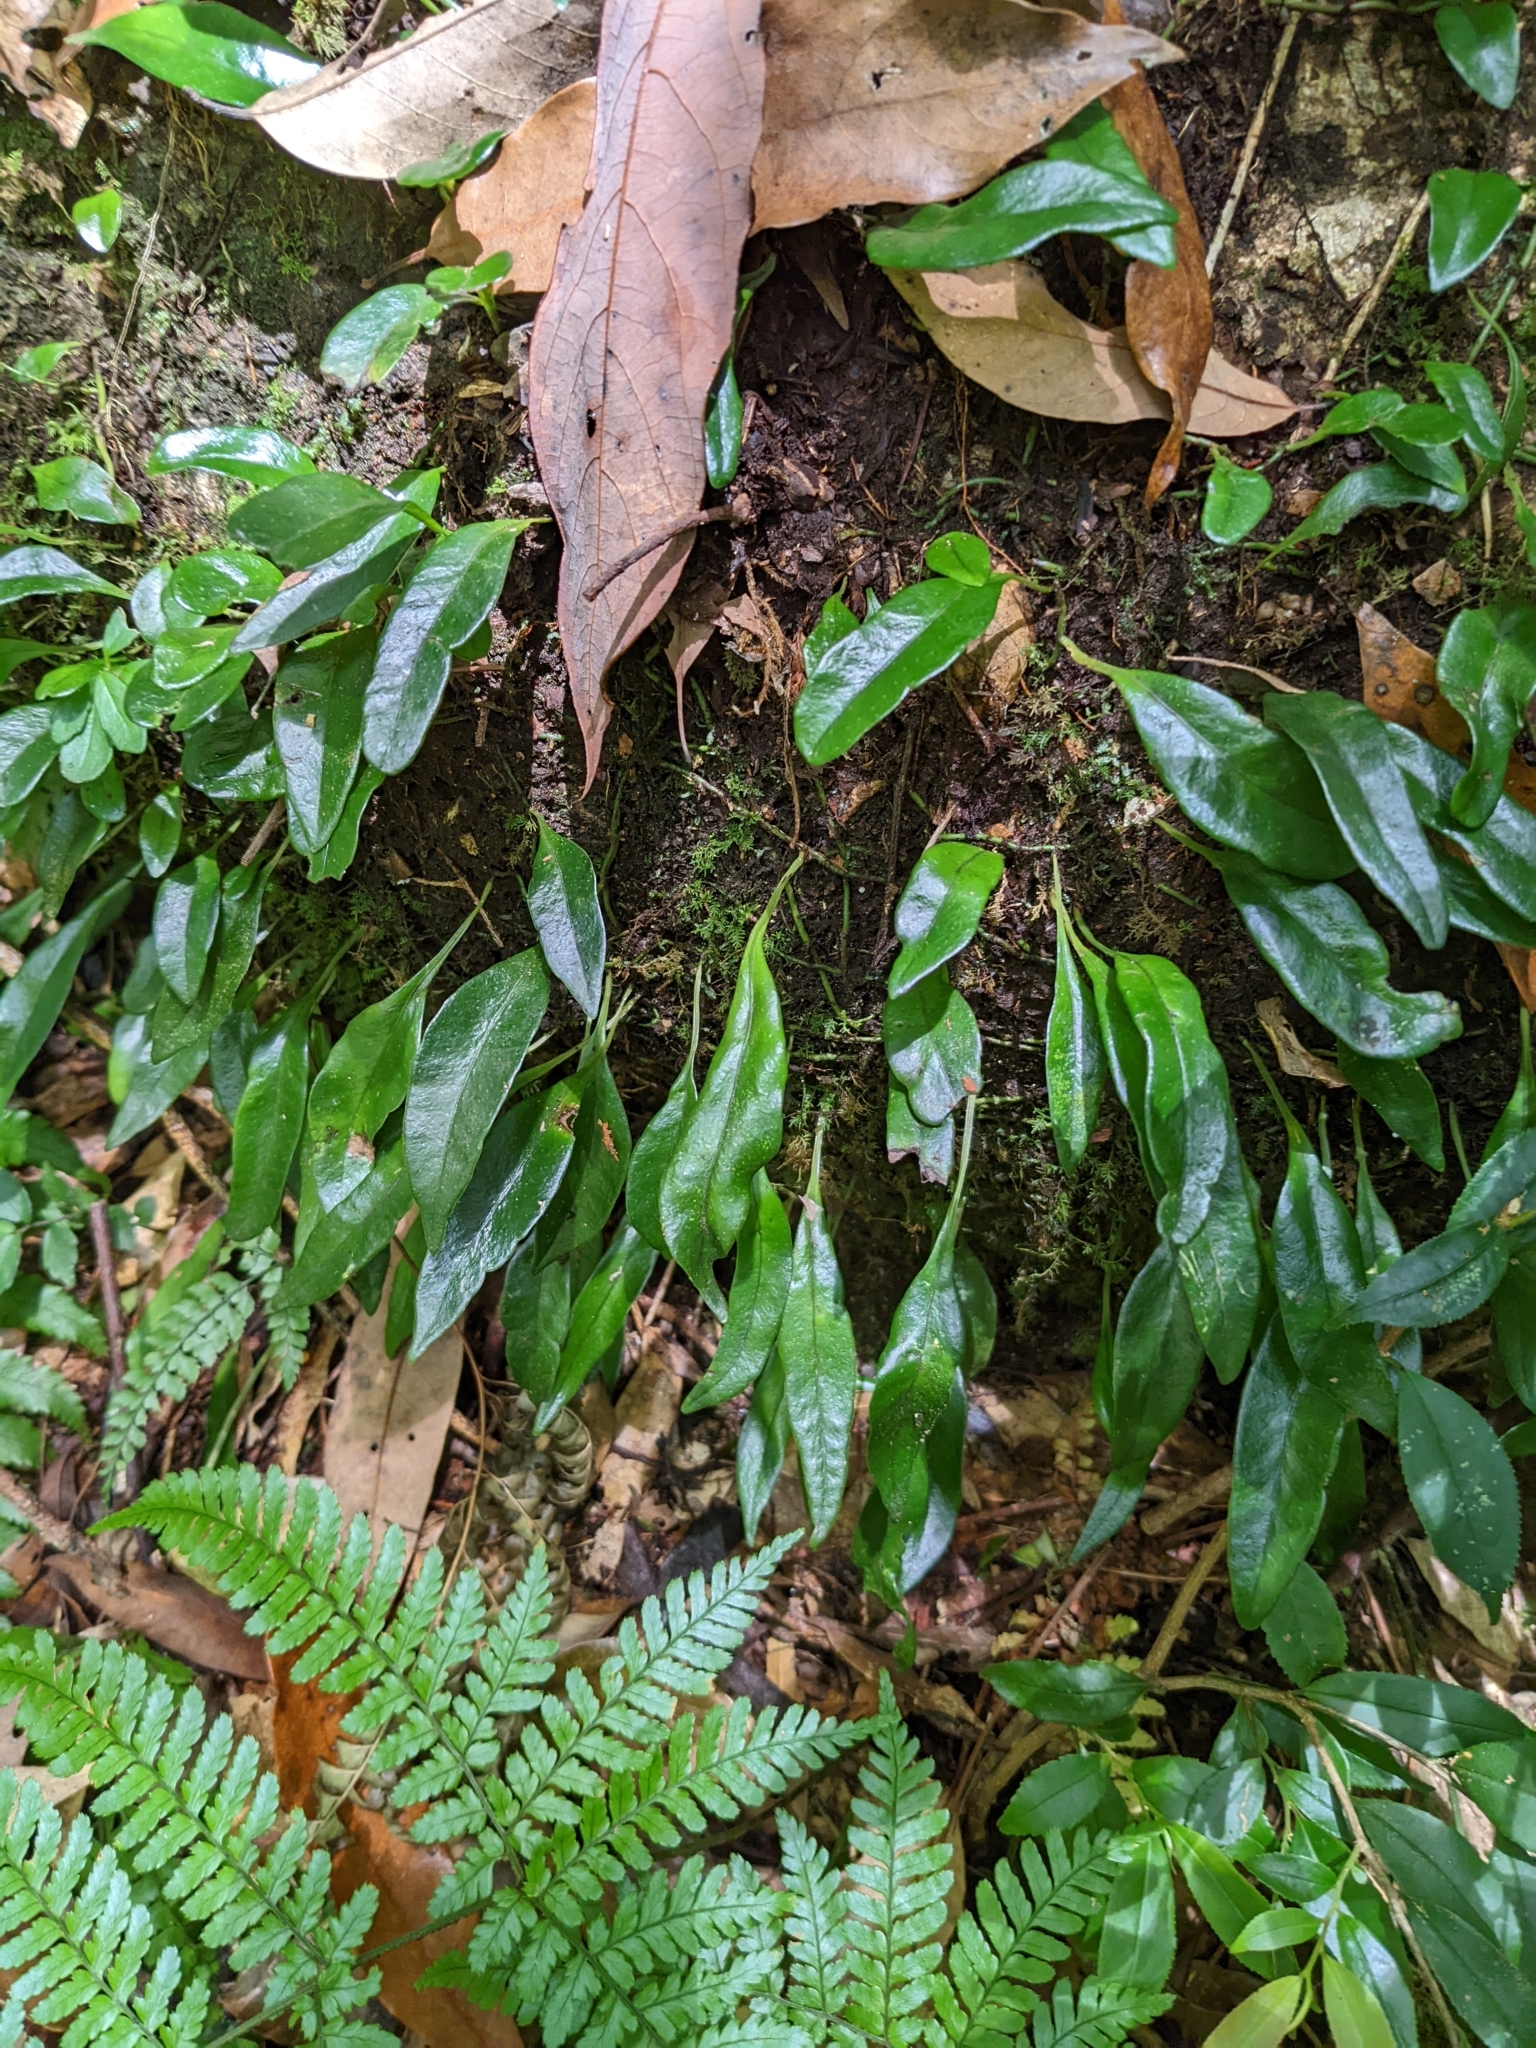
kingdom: Plantae
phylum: Tracheophyta
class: Polypodiopsida
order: Polypodiales
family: Polypodiaceae
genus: Lepisorus
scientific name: Lepisorus rostratus
